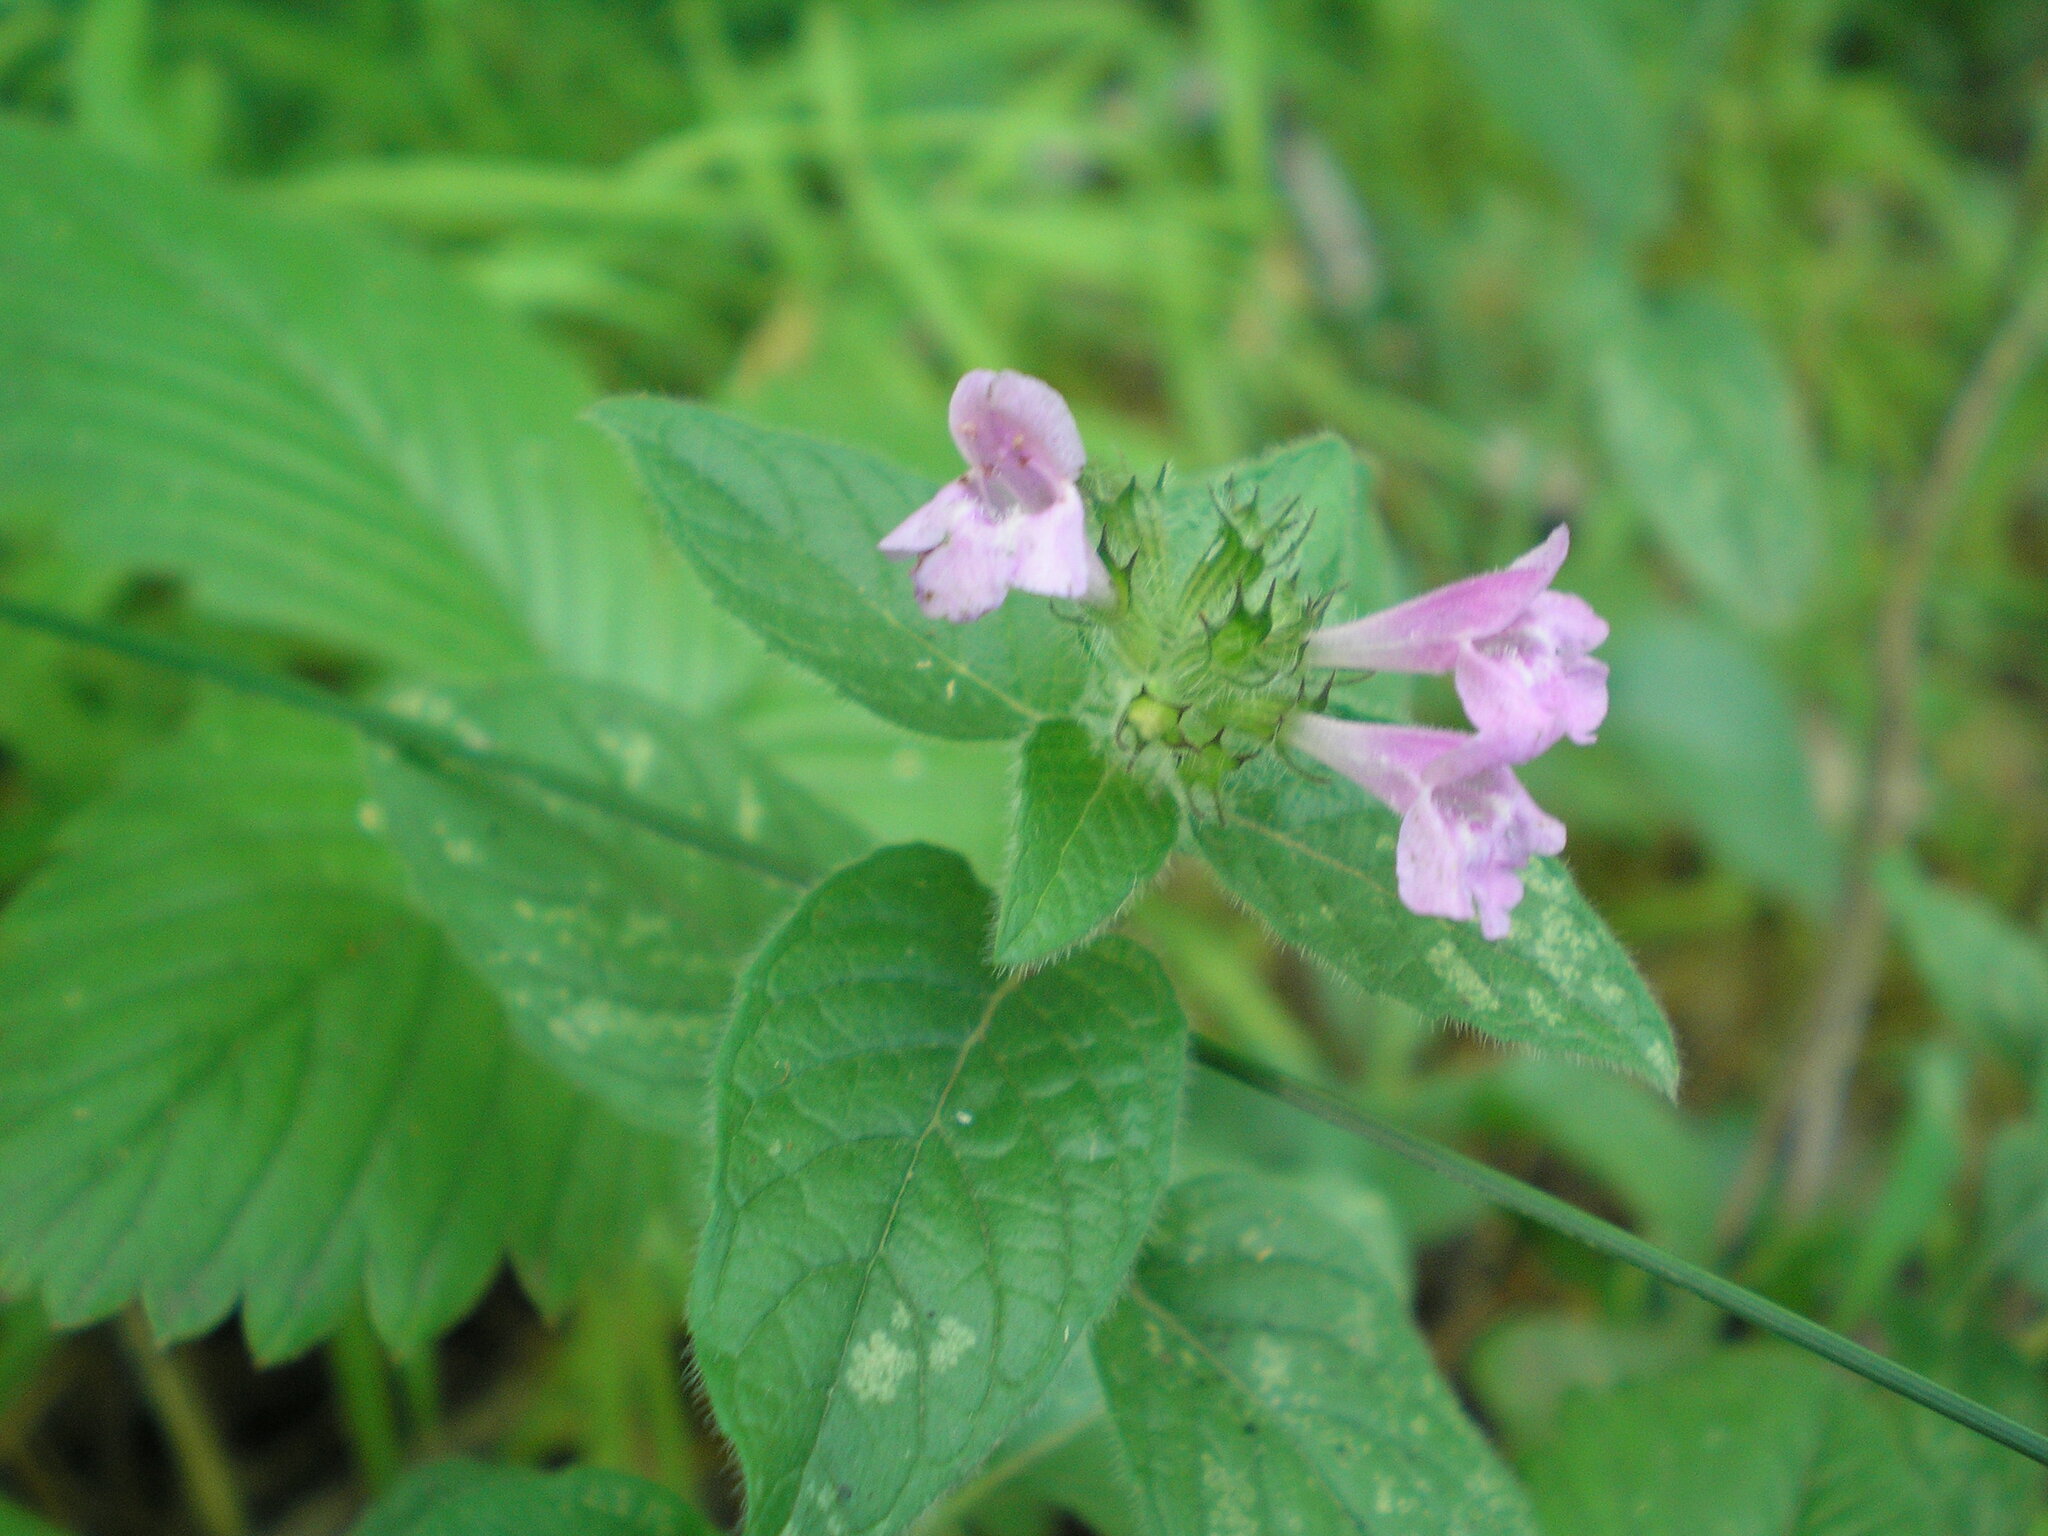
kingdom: Plantae
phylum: Tracheophyta
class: Magnoliopsida
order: Lamiales
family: Lamiaceae
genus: Clinopodium
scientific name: Clinopodium vulgare
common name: Wild basil
